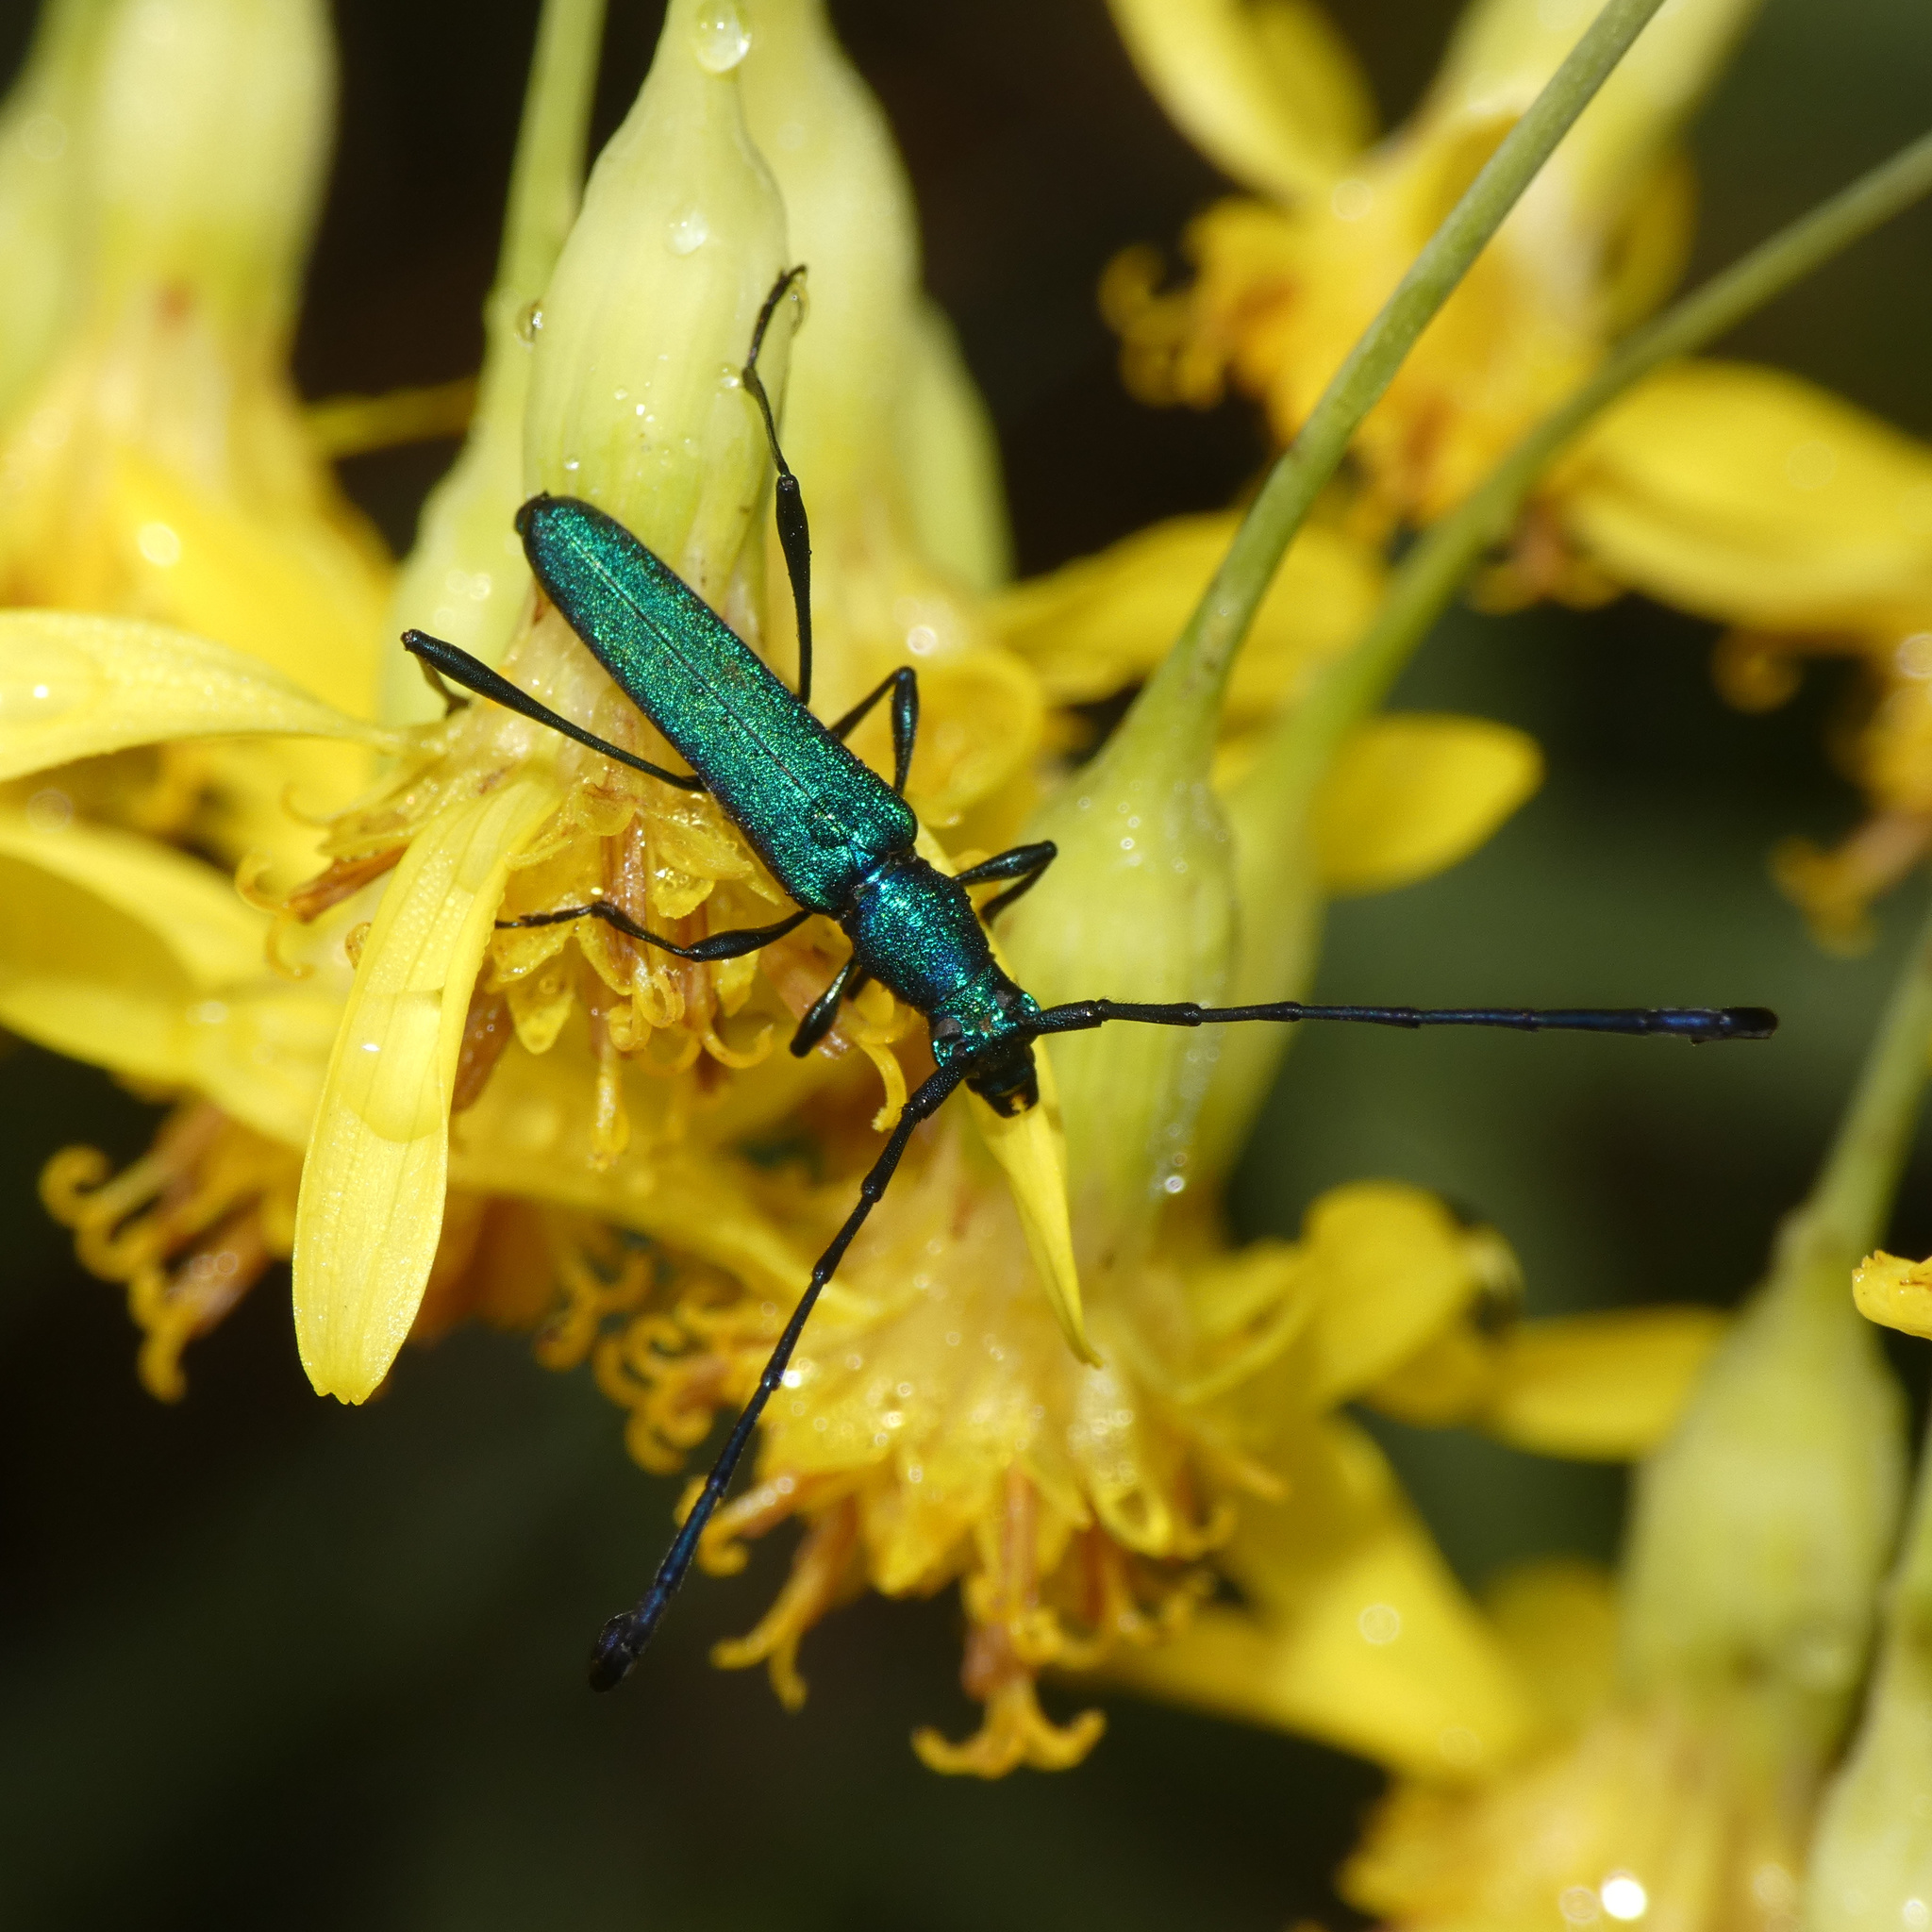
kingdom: Animalia
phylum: Arthropoda
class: Insecta
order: Coleoptera
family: Cerambycidae
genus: Hypocrites
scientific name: Hypocrites
